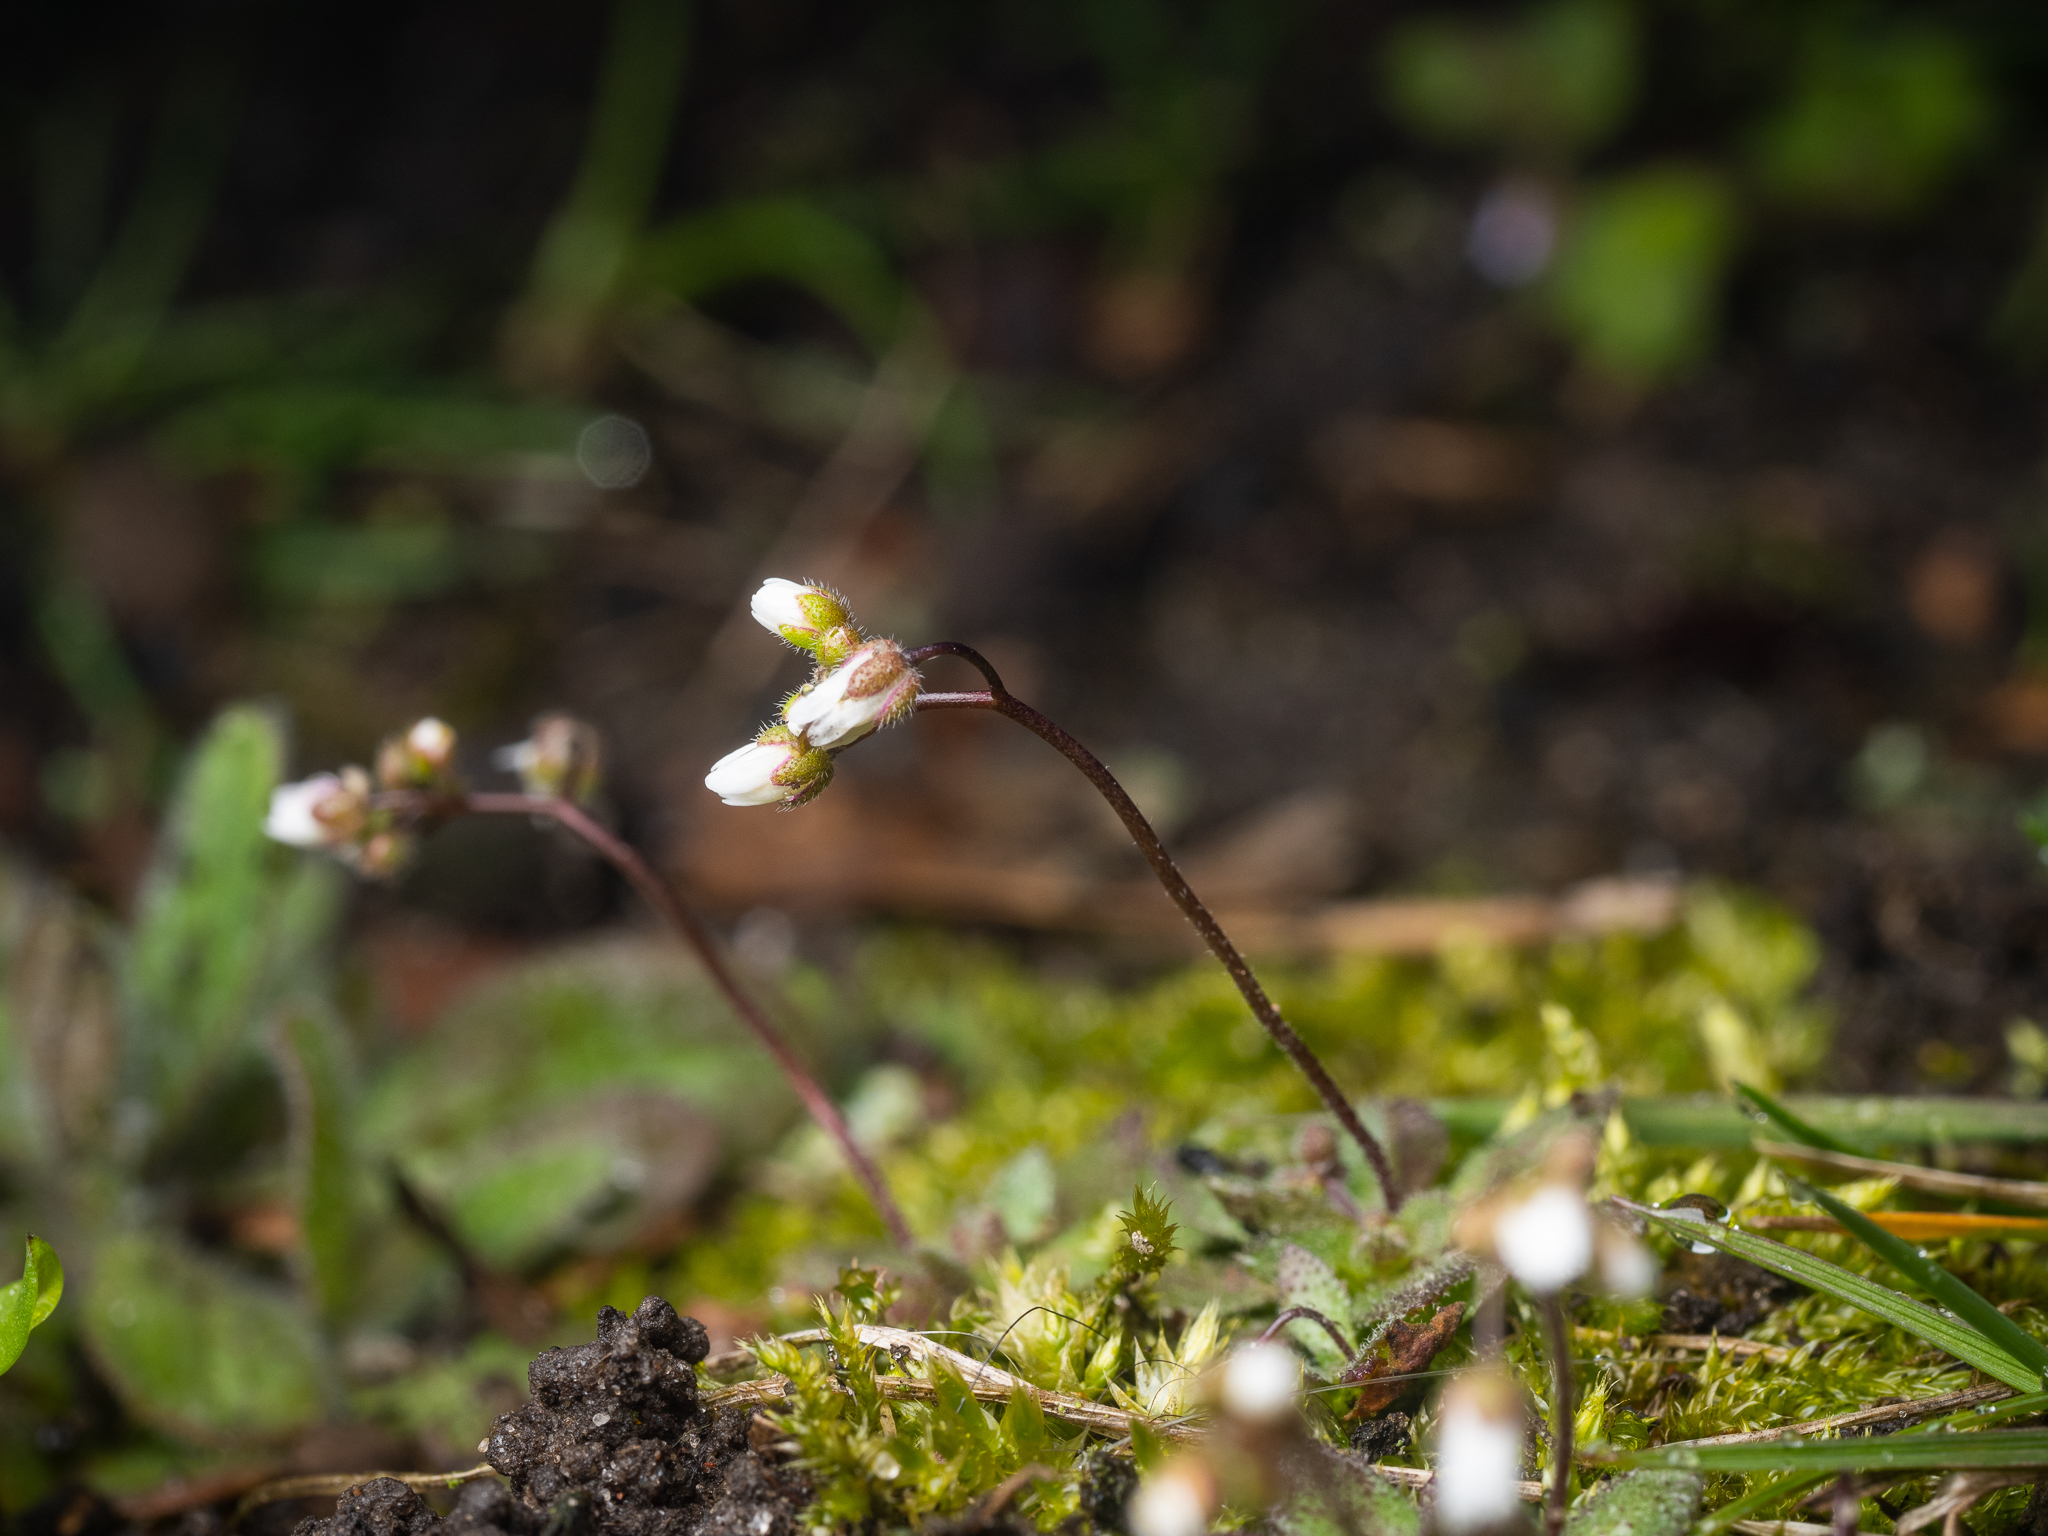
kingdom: Plantae
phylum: Tracheophyta
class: Magnoliopsida
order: Brassicales
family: Brassicaceae
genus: Draba
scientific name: Draba verna
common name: Spring draba
